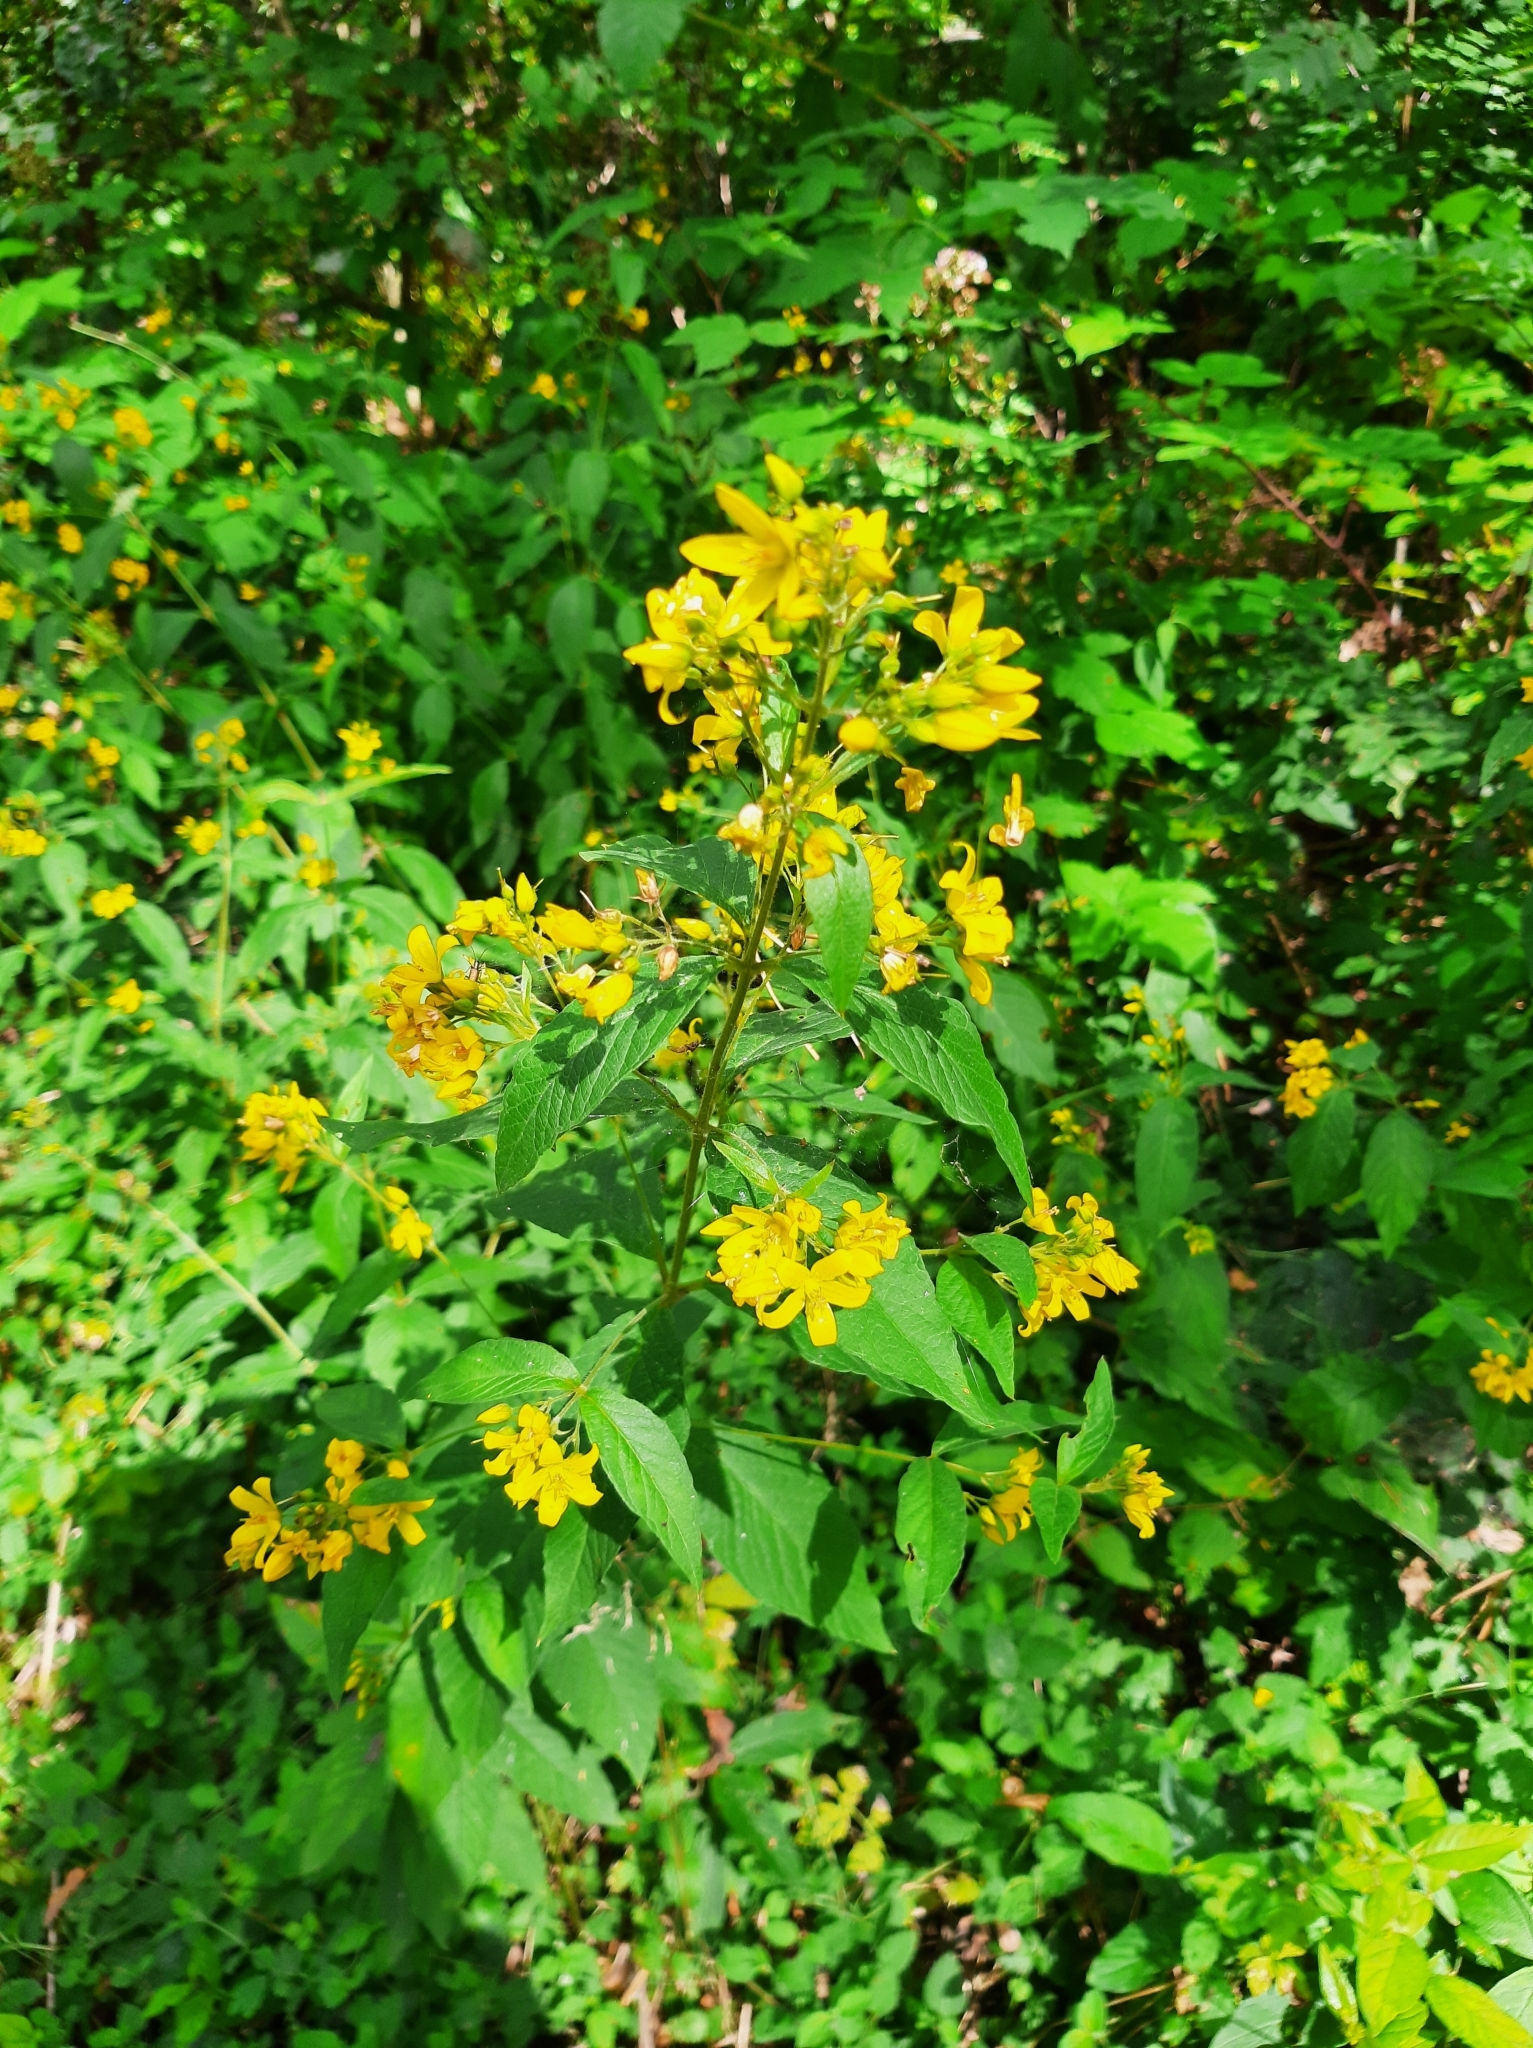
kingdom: Plantae
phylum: Tracheophyta
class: Magnoliopsida
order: Ericales
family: Primulaceae
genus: Lysimachia
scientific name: Lysimachia vulgaris
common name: Yellow loosestrife
